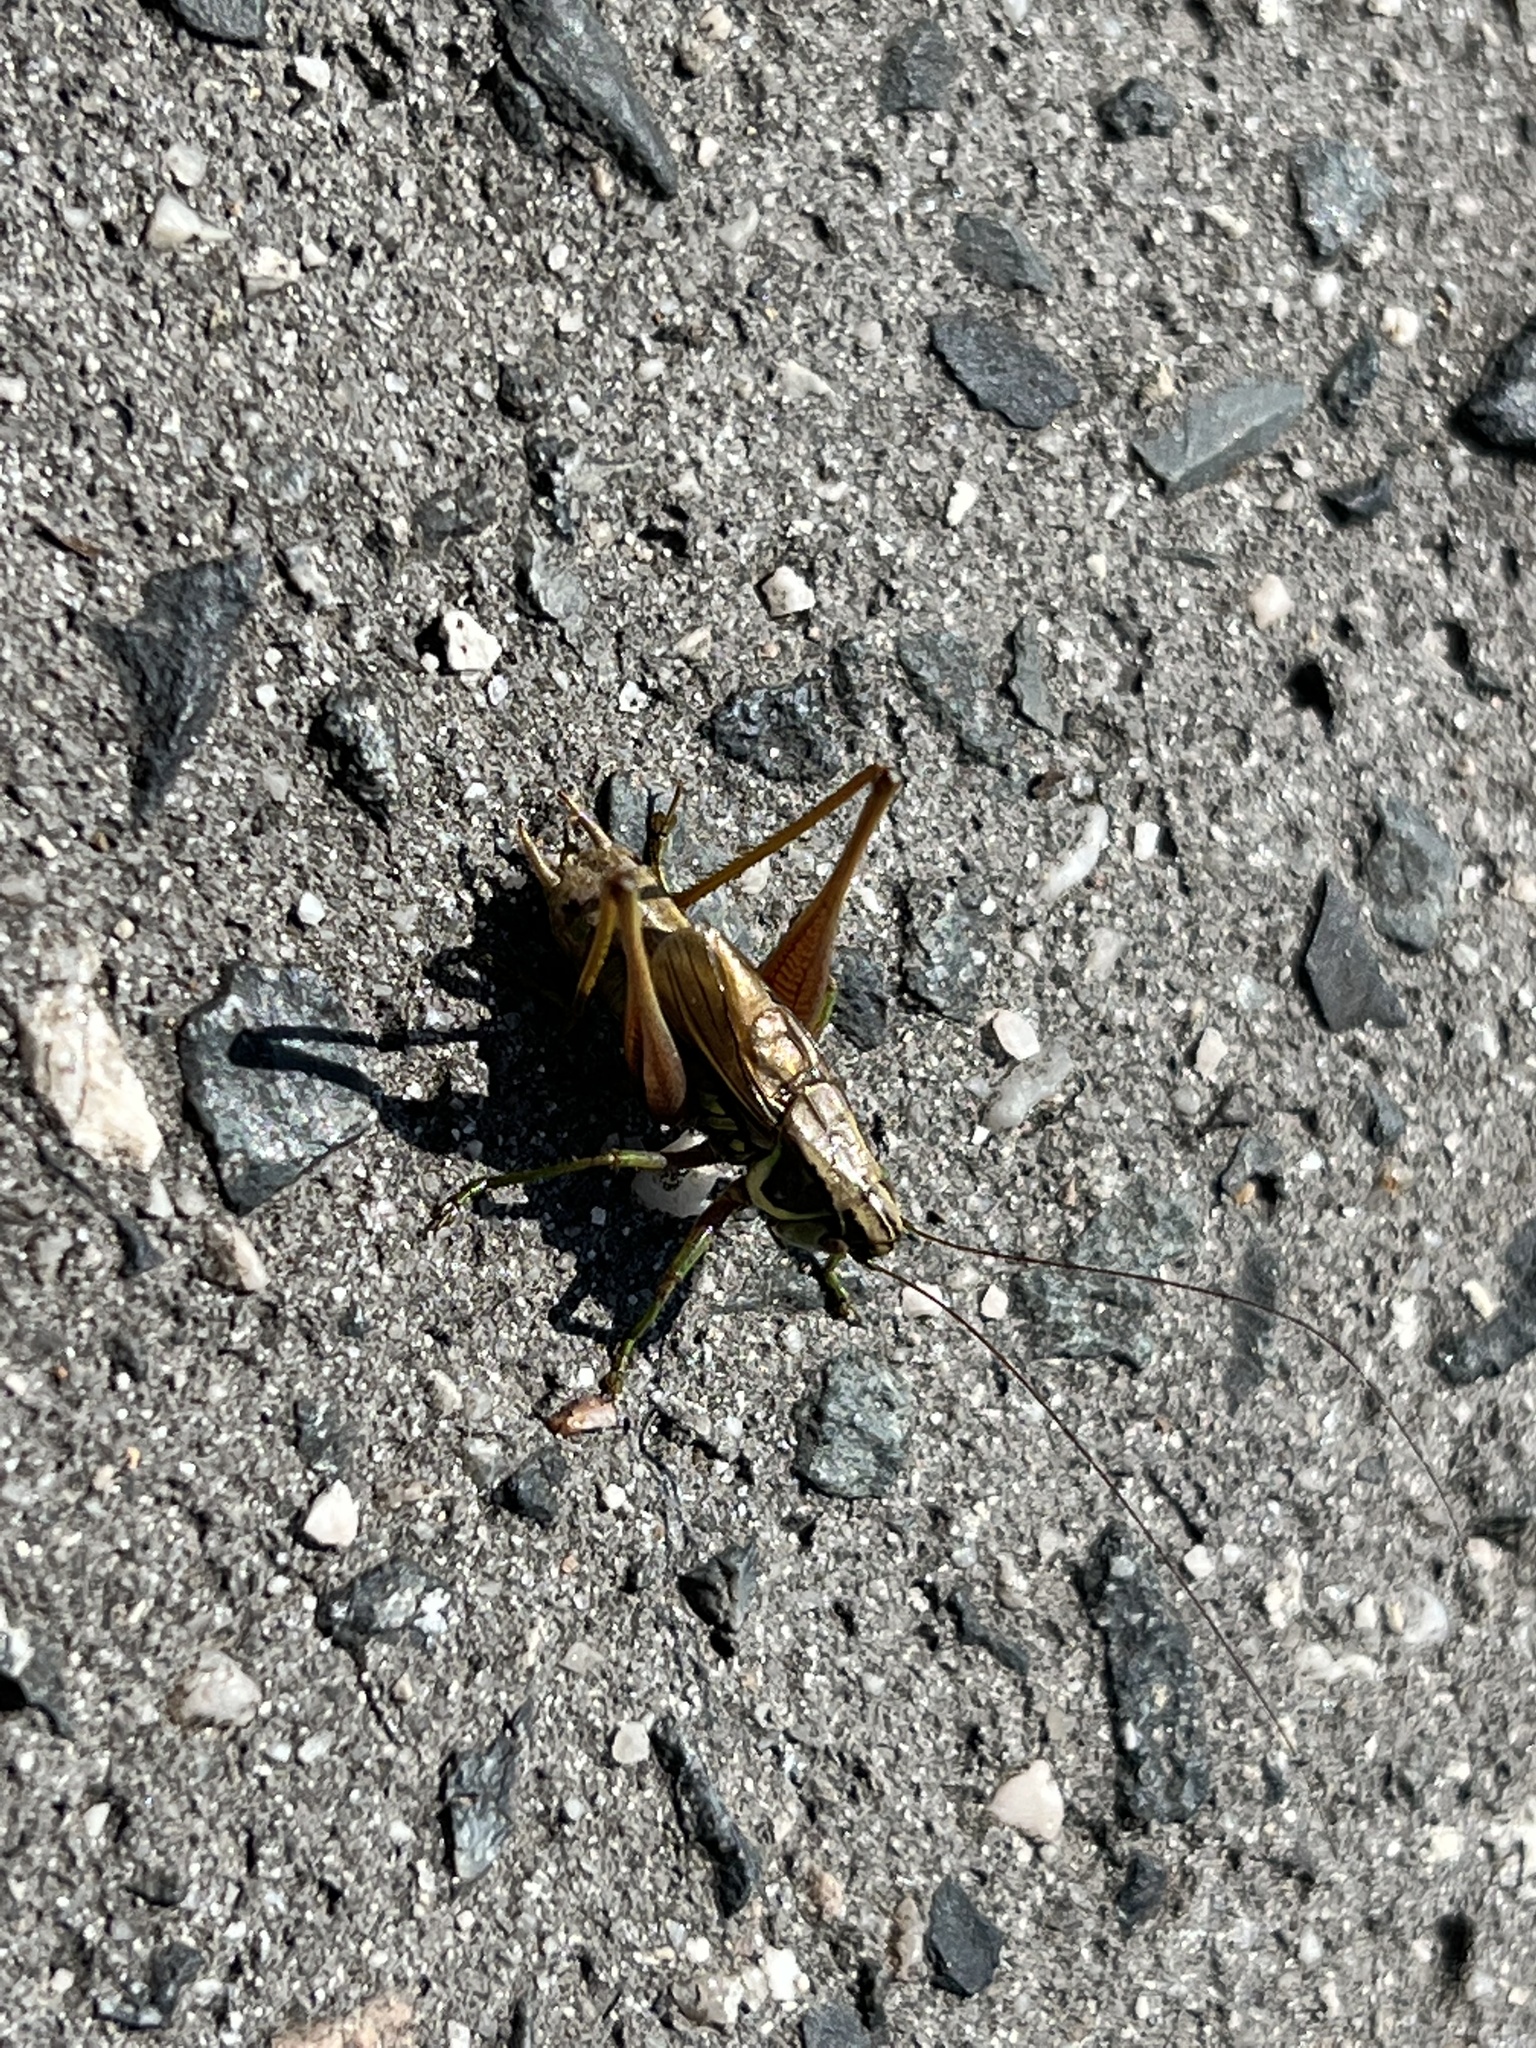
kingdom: Animalia
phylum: Arthropoda
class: Insecta
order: Orthoptera
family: Tettigoniidae
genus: Roeseliana
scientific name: Roeseliana roeselii
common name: Roesel's bush cricket
